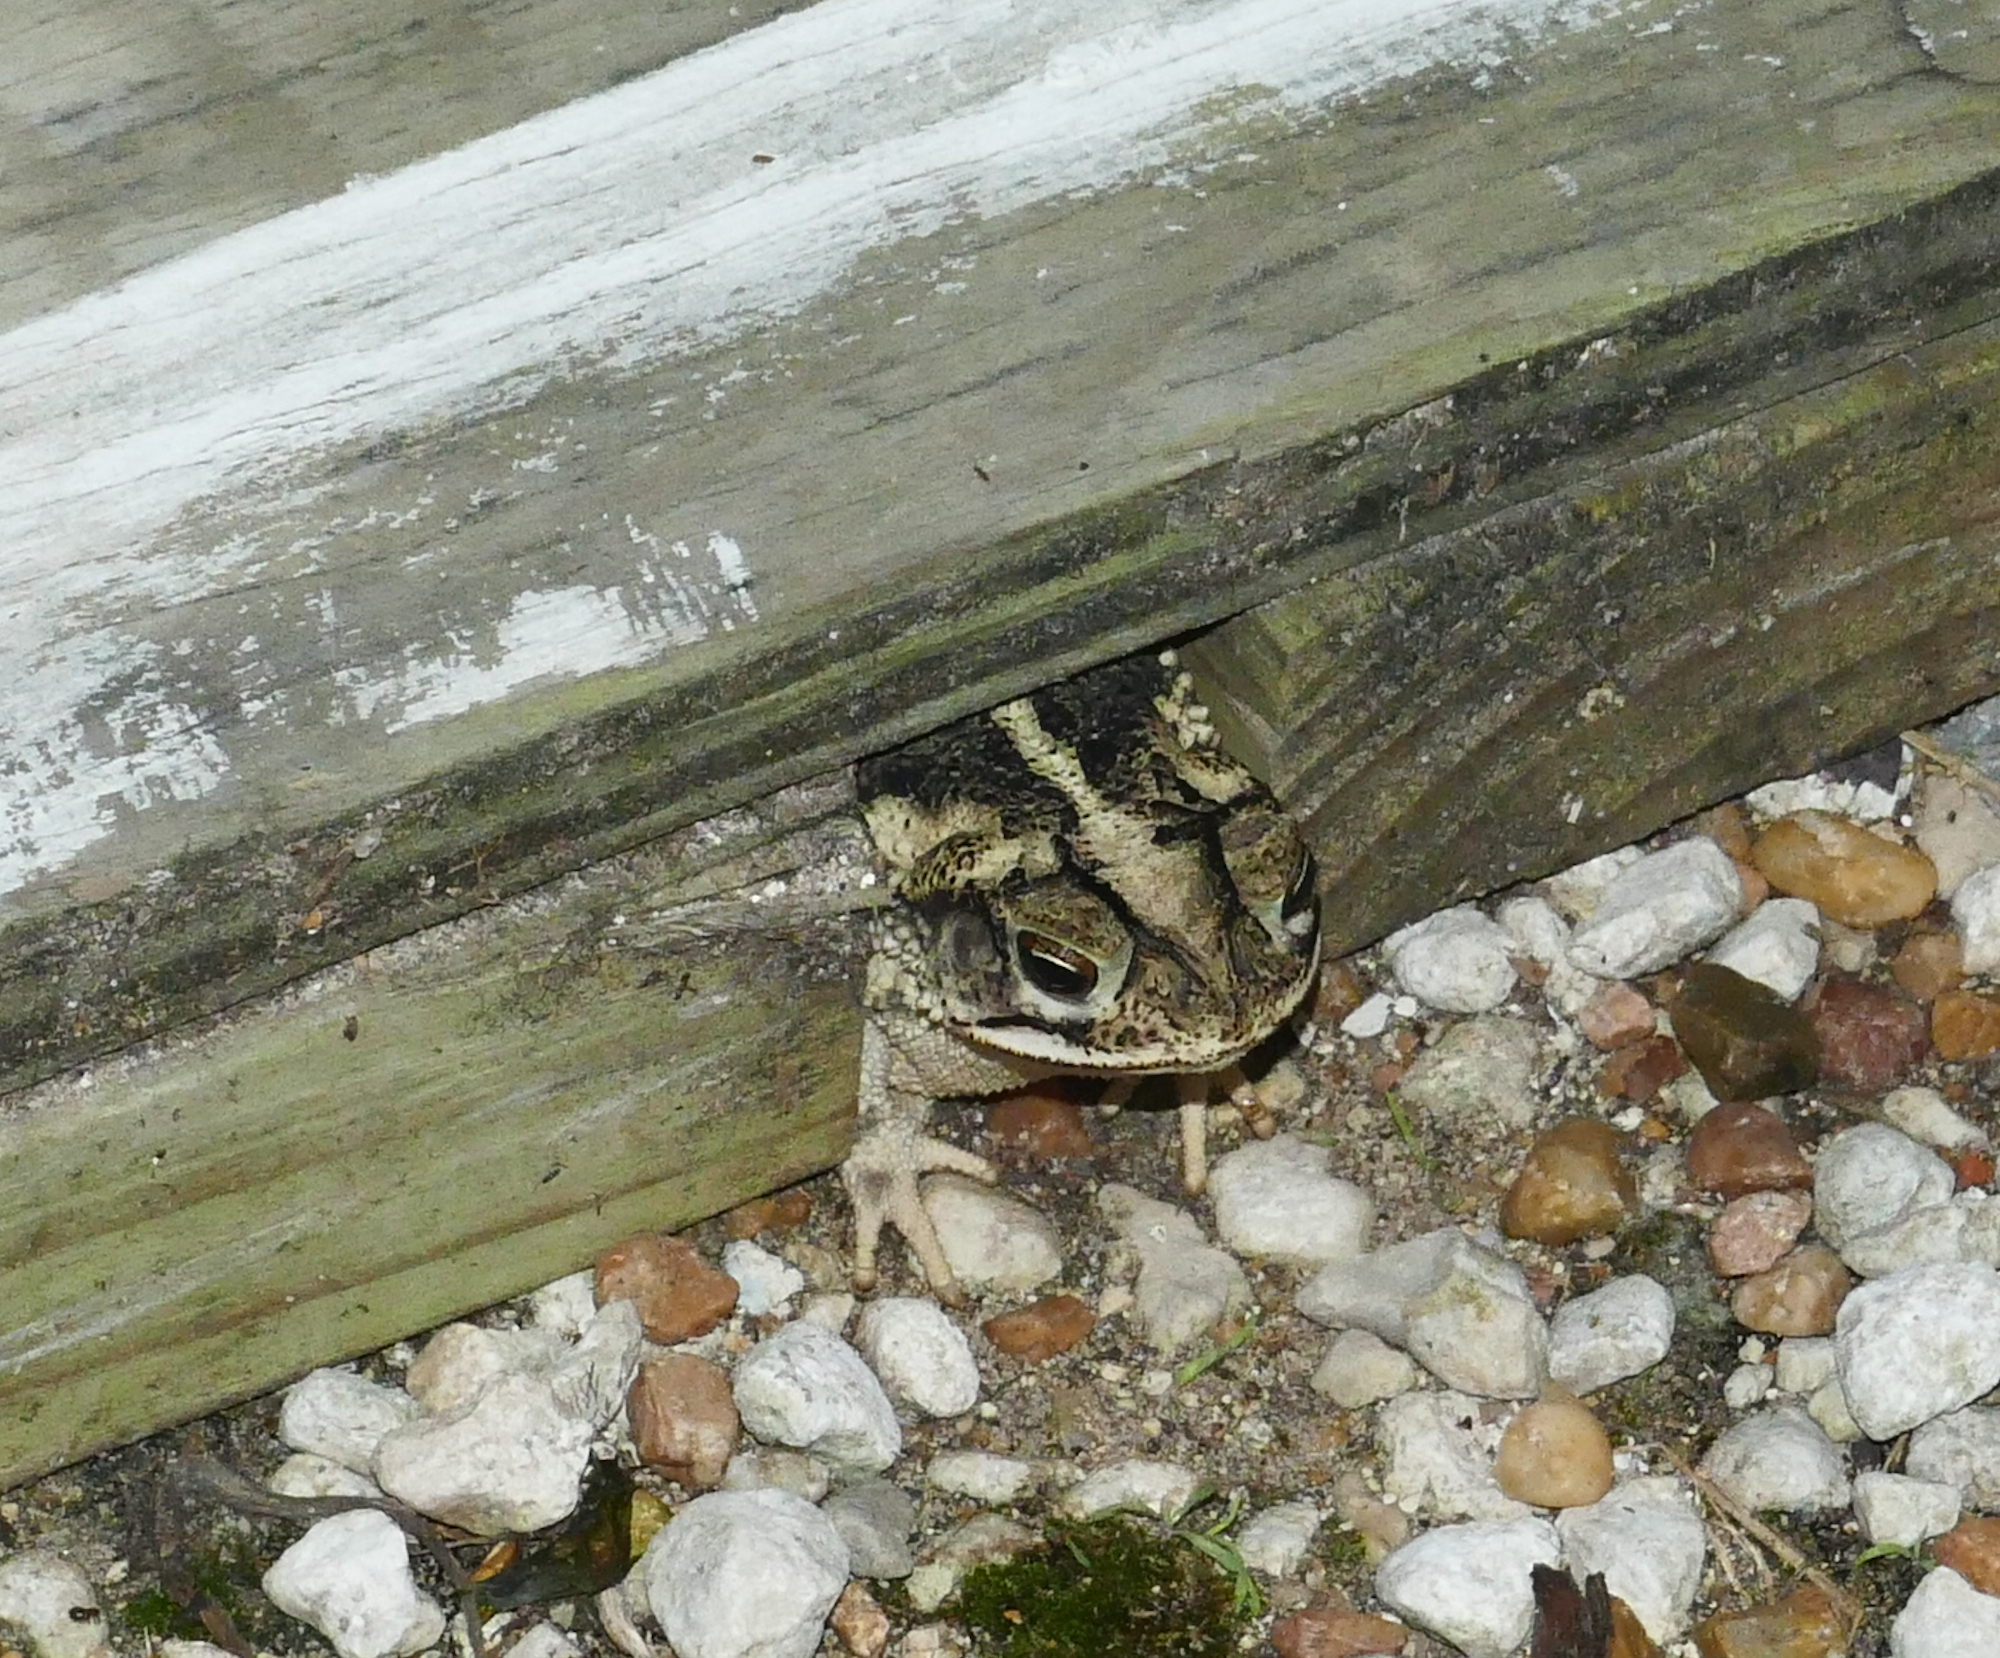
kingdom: Animalia
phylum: Chordata
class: Amphibia
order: Anura
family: Bufonidae
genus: Incilius
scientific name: Incilius nebulifer
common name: Gulf coast toad
